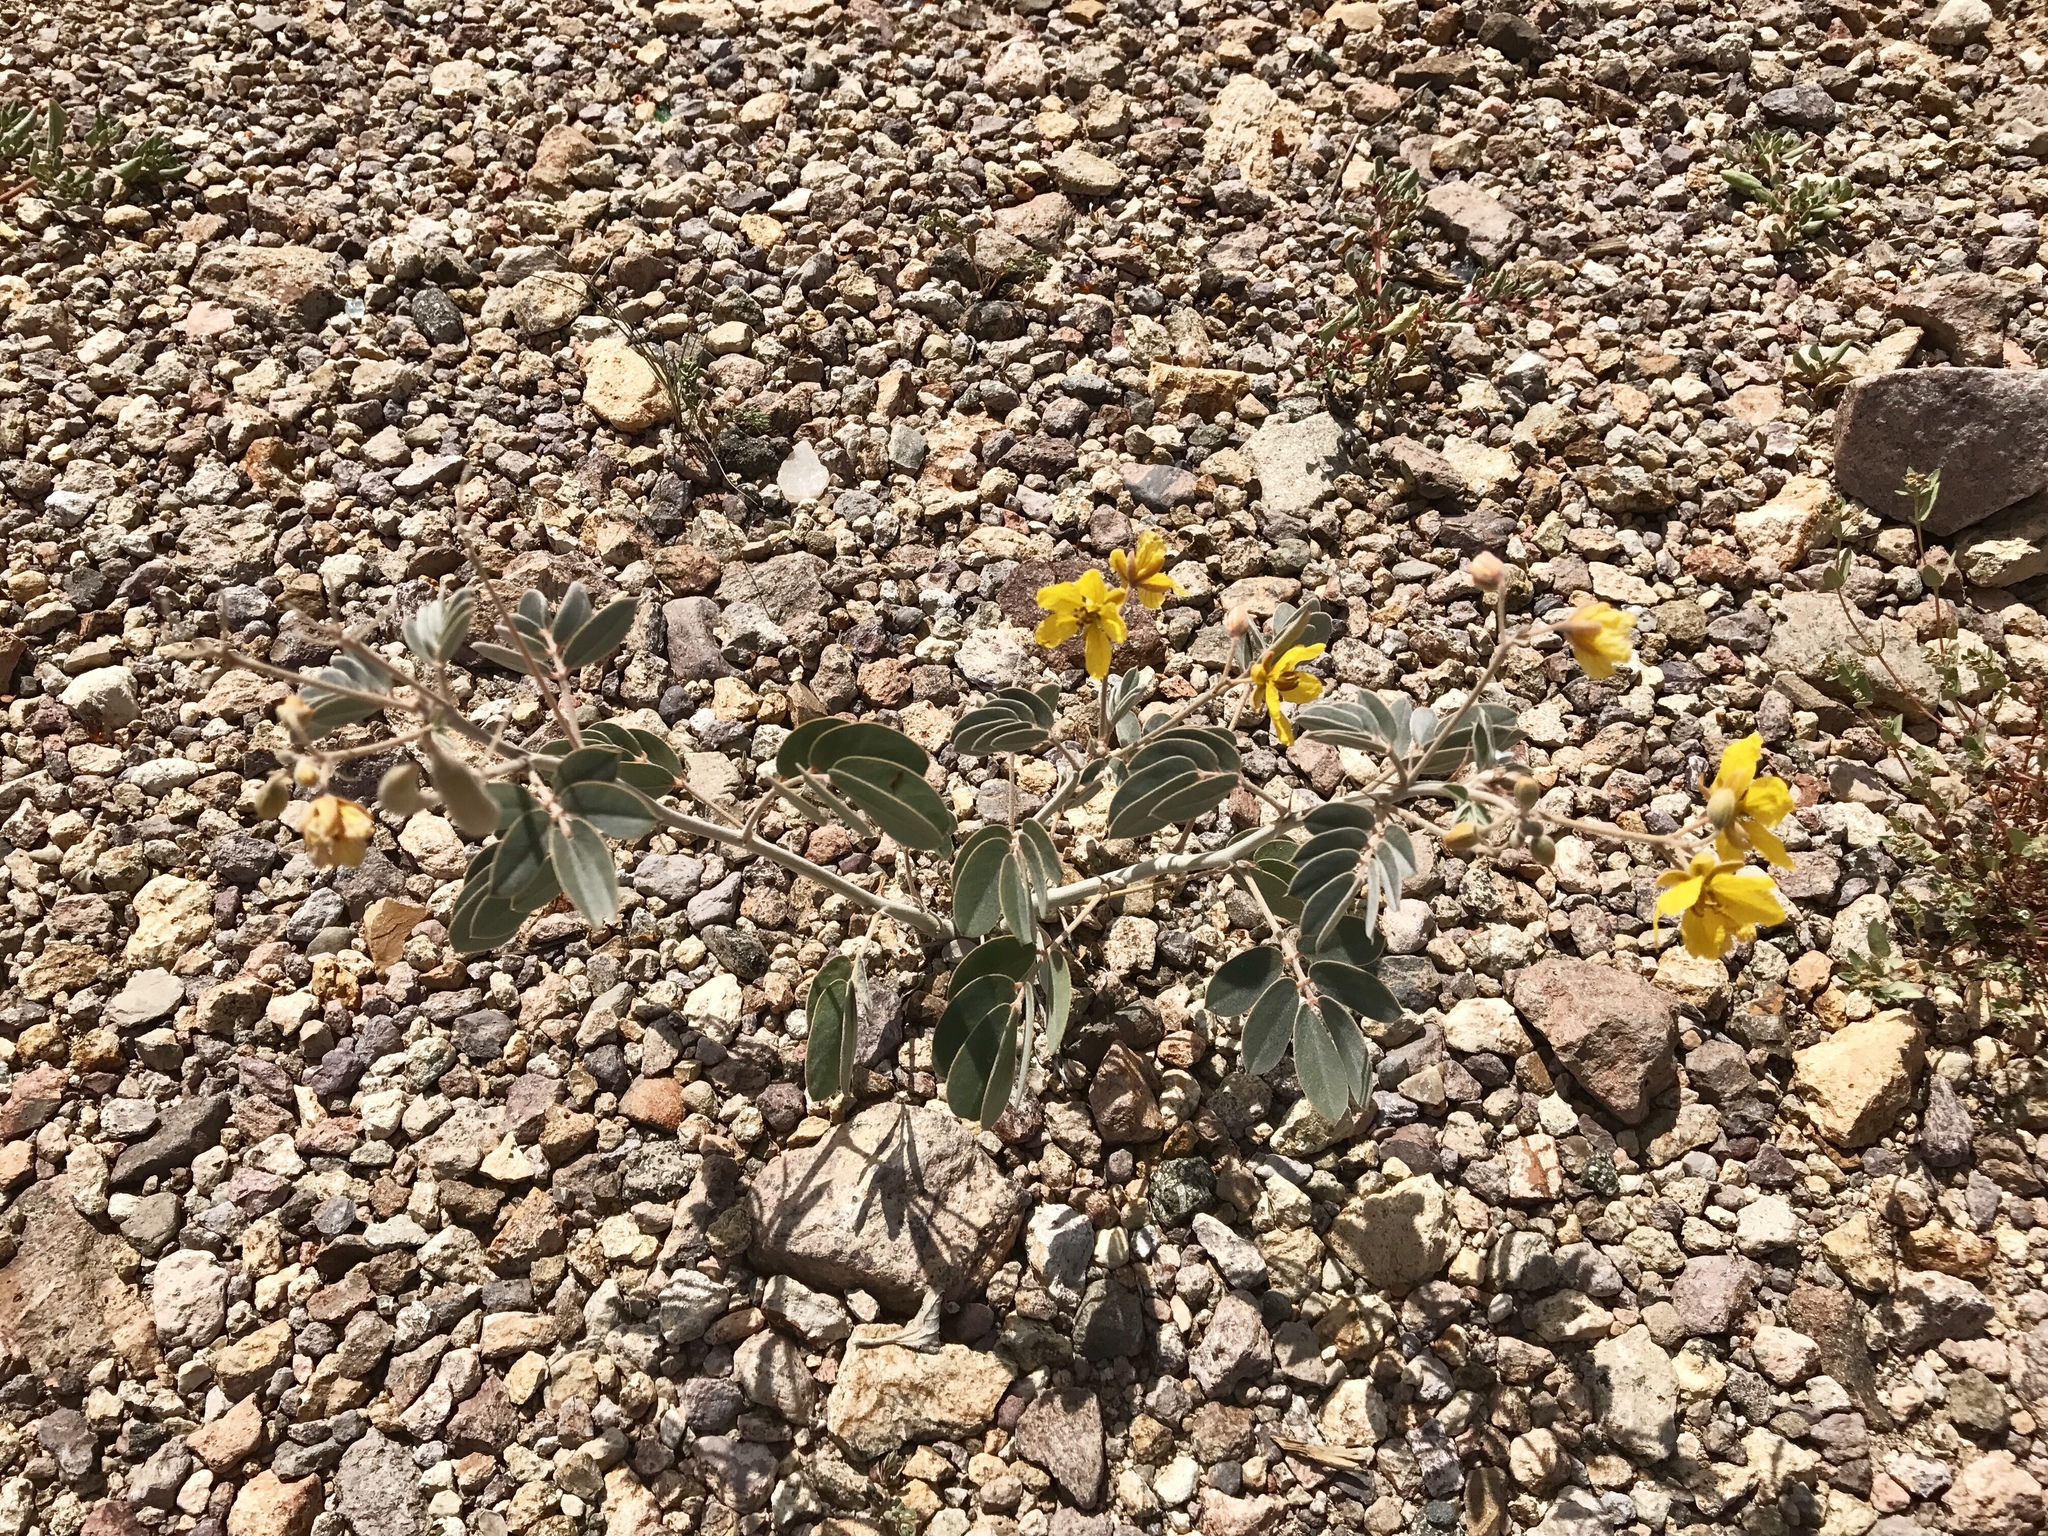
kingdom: Plantae
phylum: Tracheophyta
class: Magnoliopsida
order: Fabales
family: Fabaceae
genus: Senna
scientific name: Senna covesii
